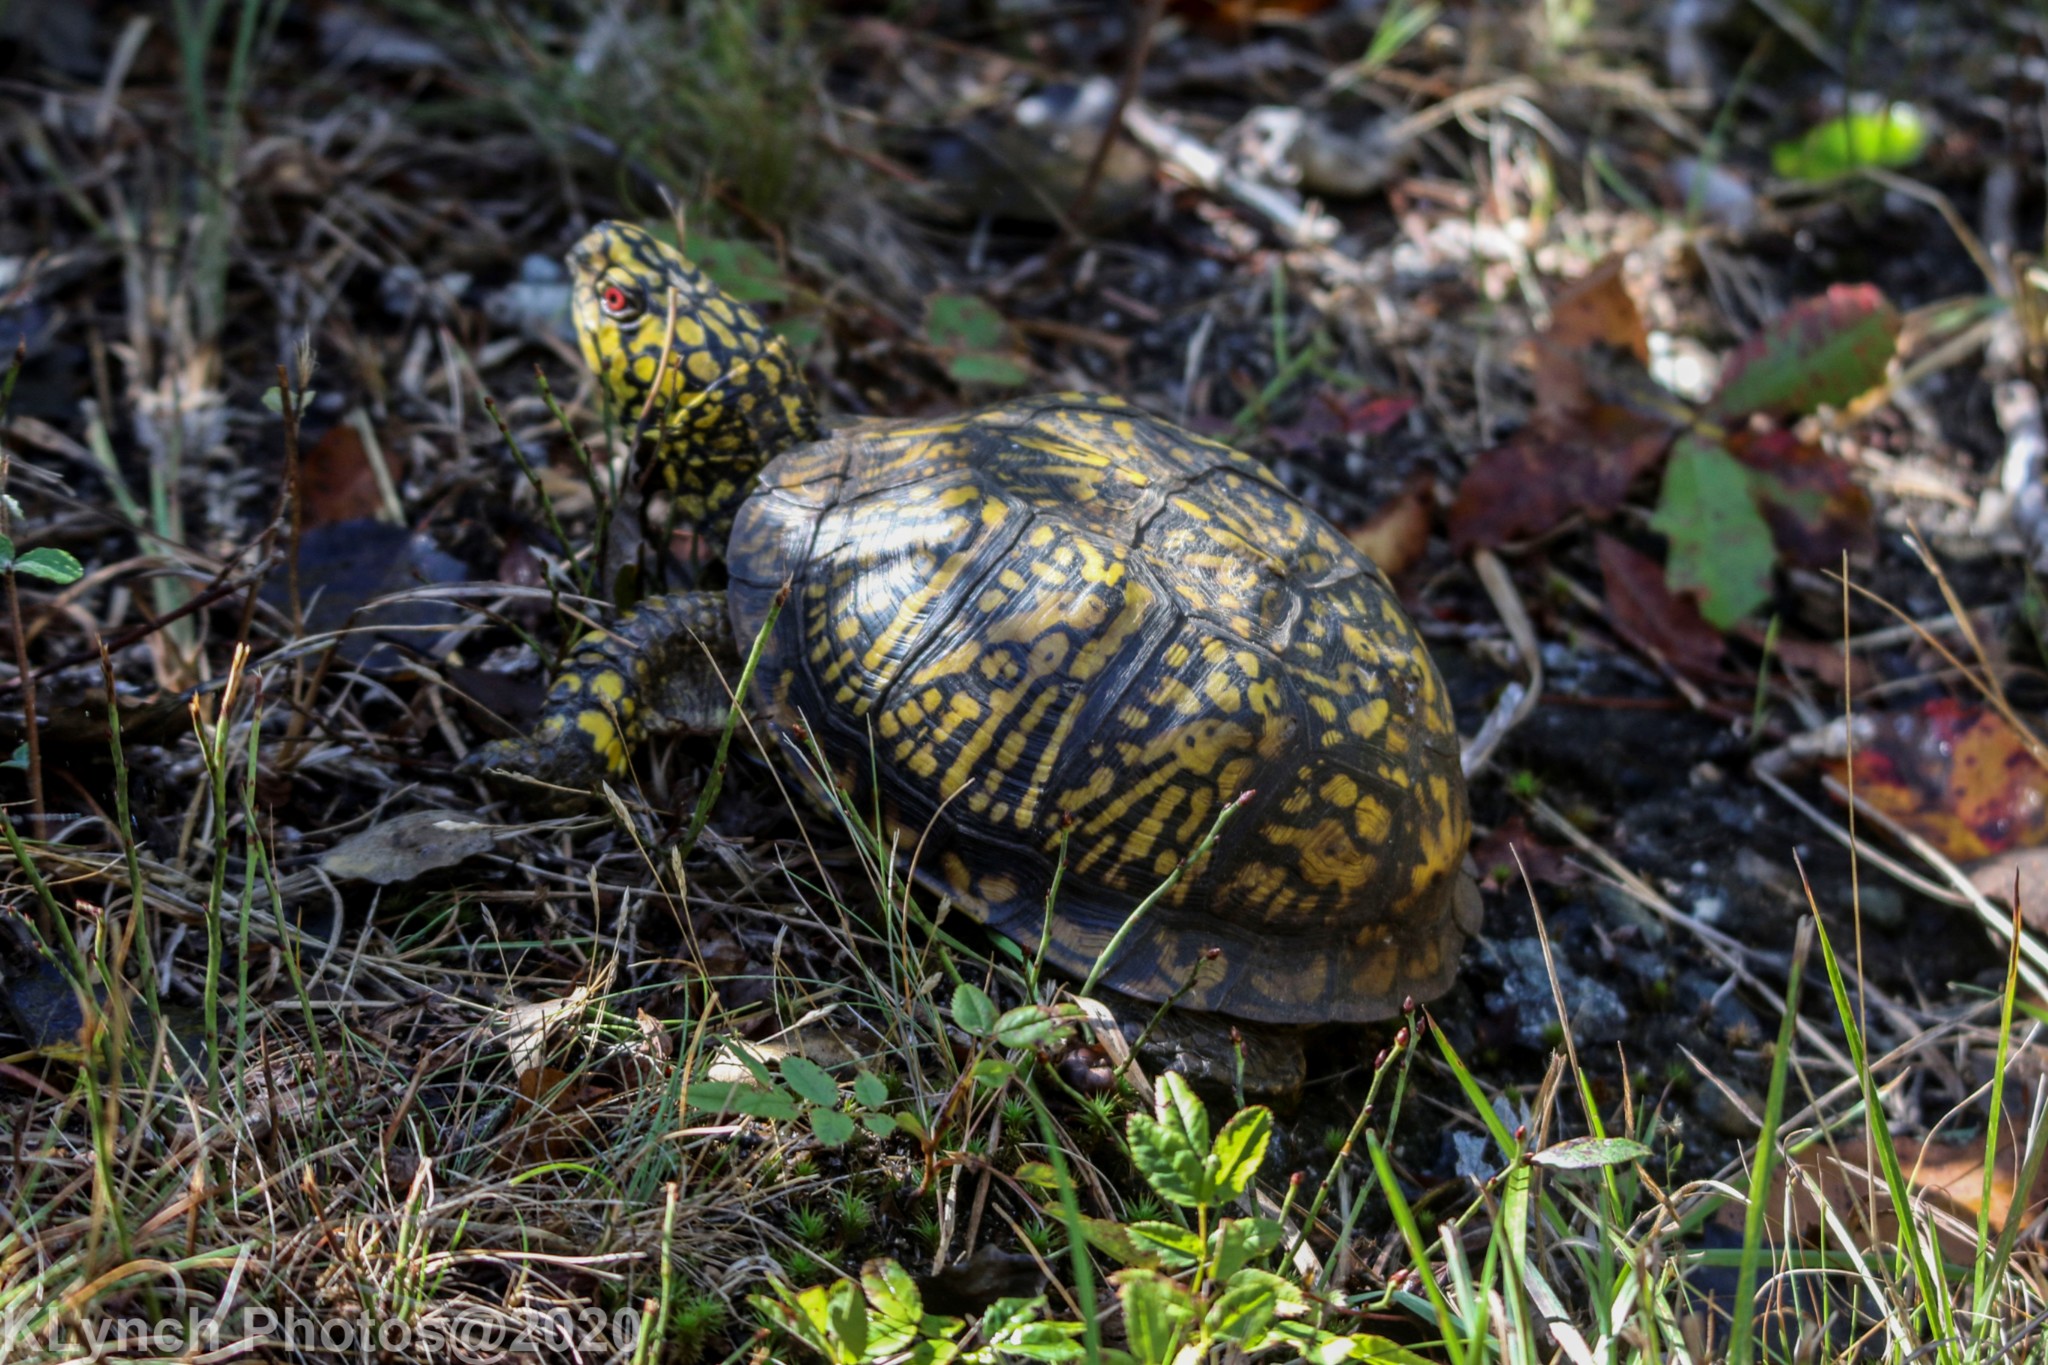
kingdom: Animalia
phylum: Chordata
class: Testudines
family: Emydidae
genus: Terrapene
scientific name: Terrapene carolina
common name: Common box turtle
